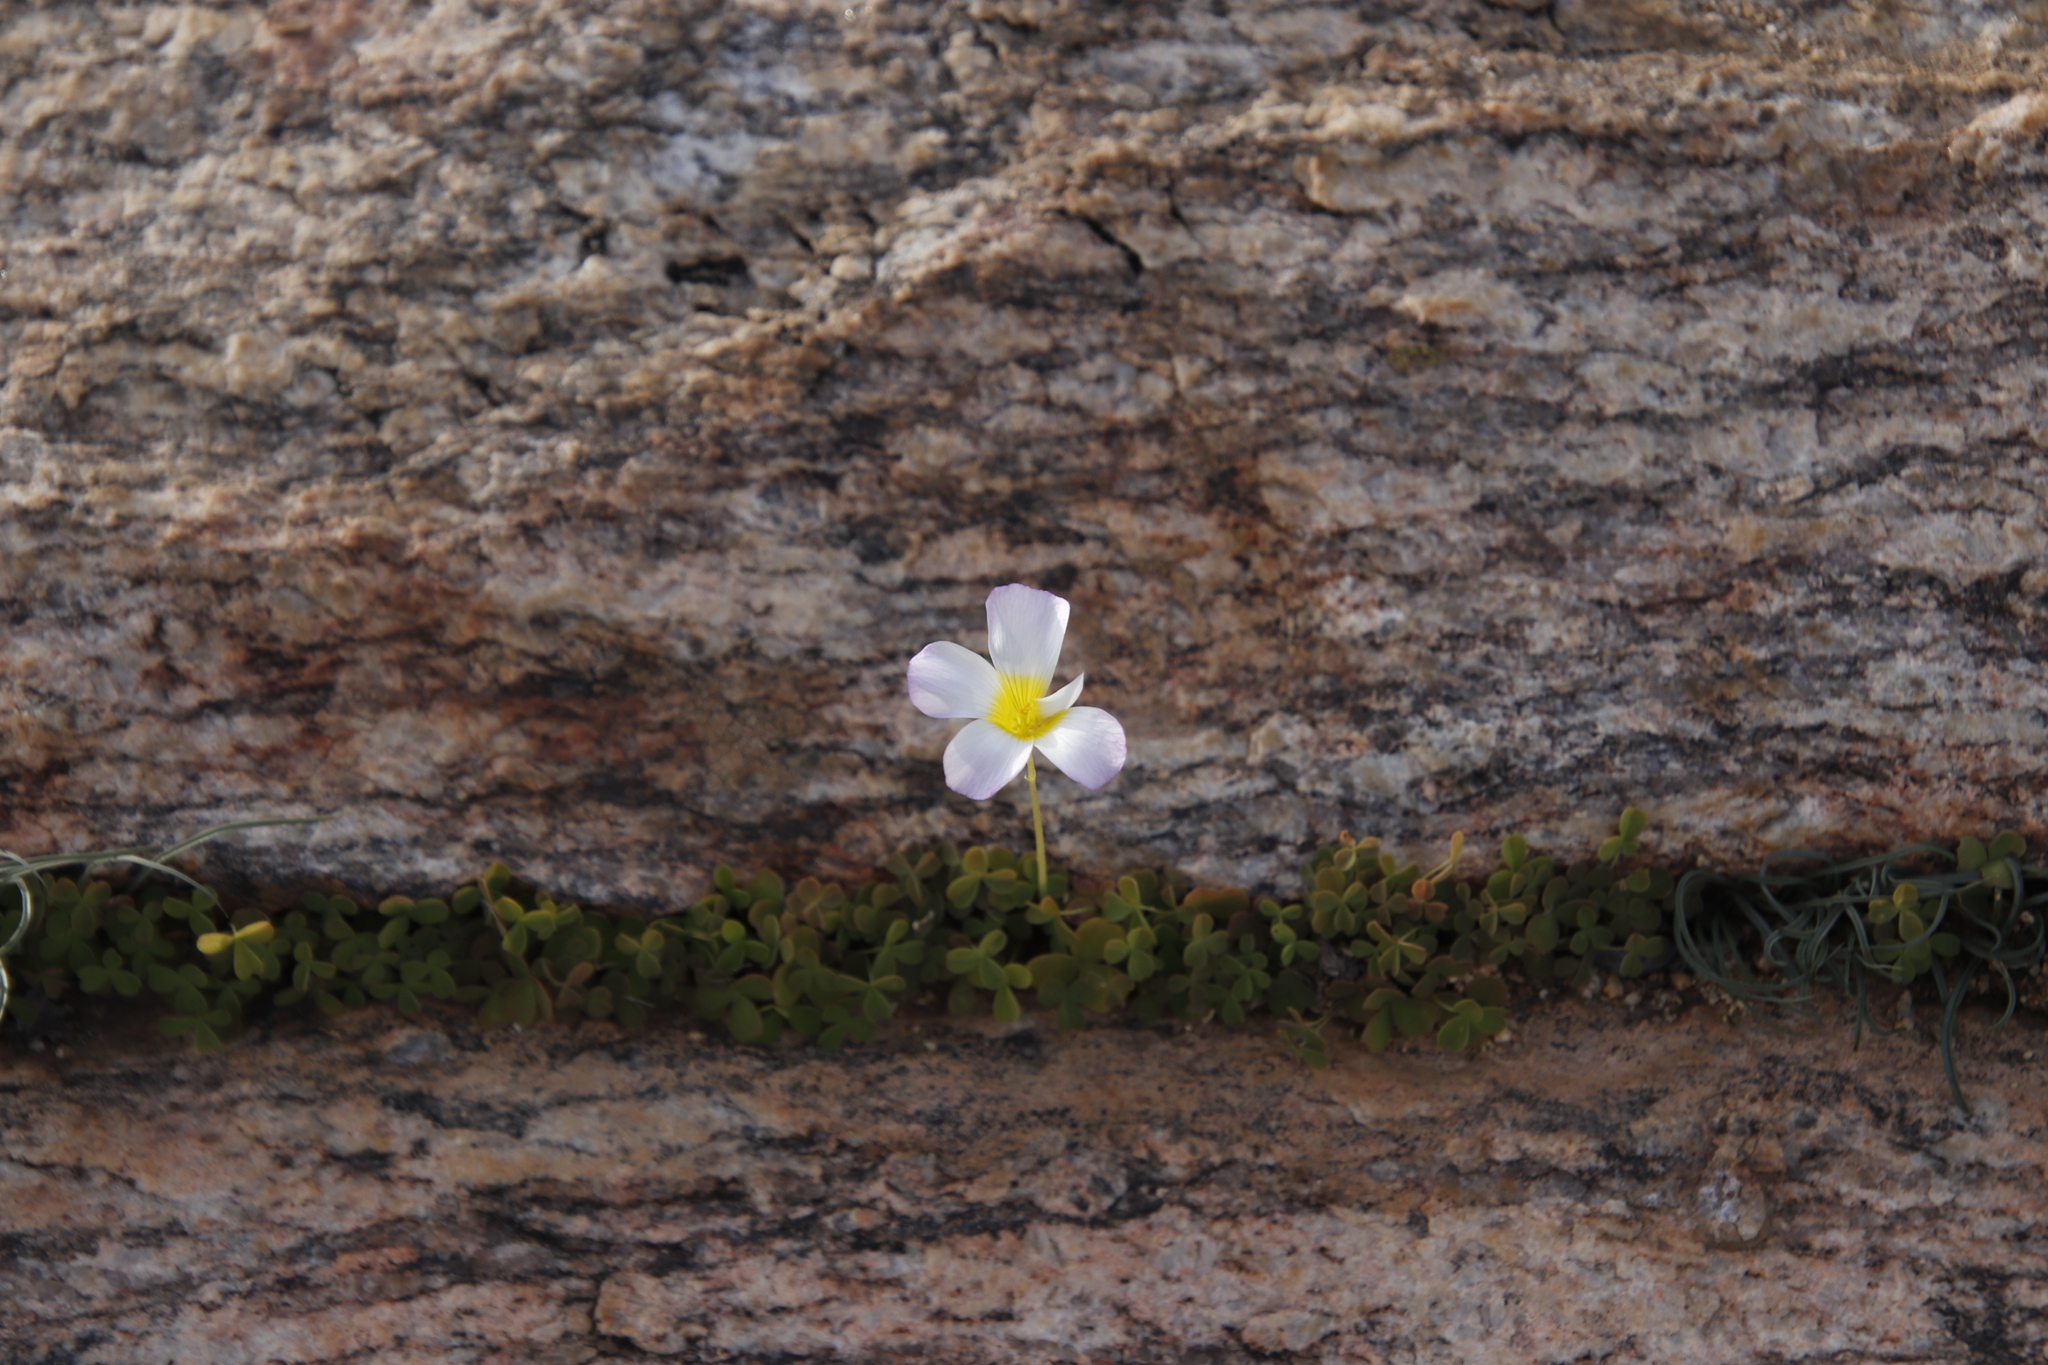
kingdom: Plantae
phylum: Tracheophyta
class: Magnoliopsida
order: Oxalidales
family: Oxalidaceae
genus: Oxalis
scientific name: Oxalis obtusa
